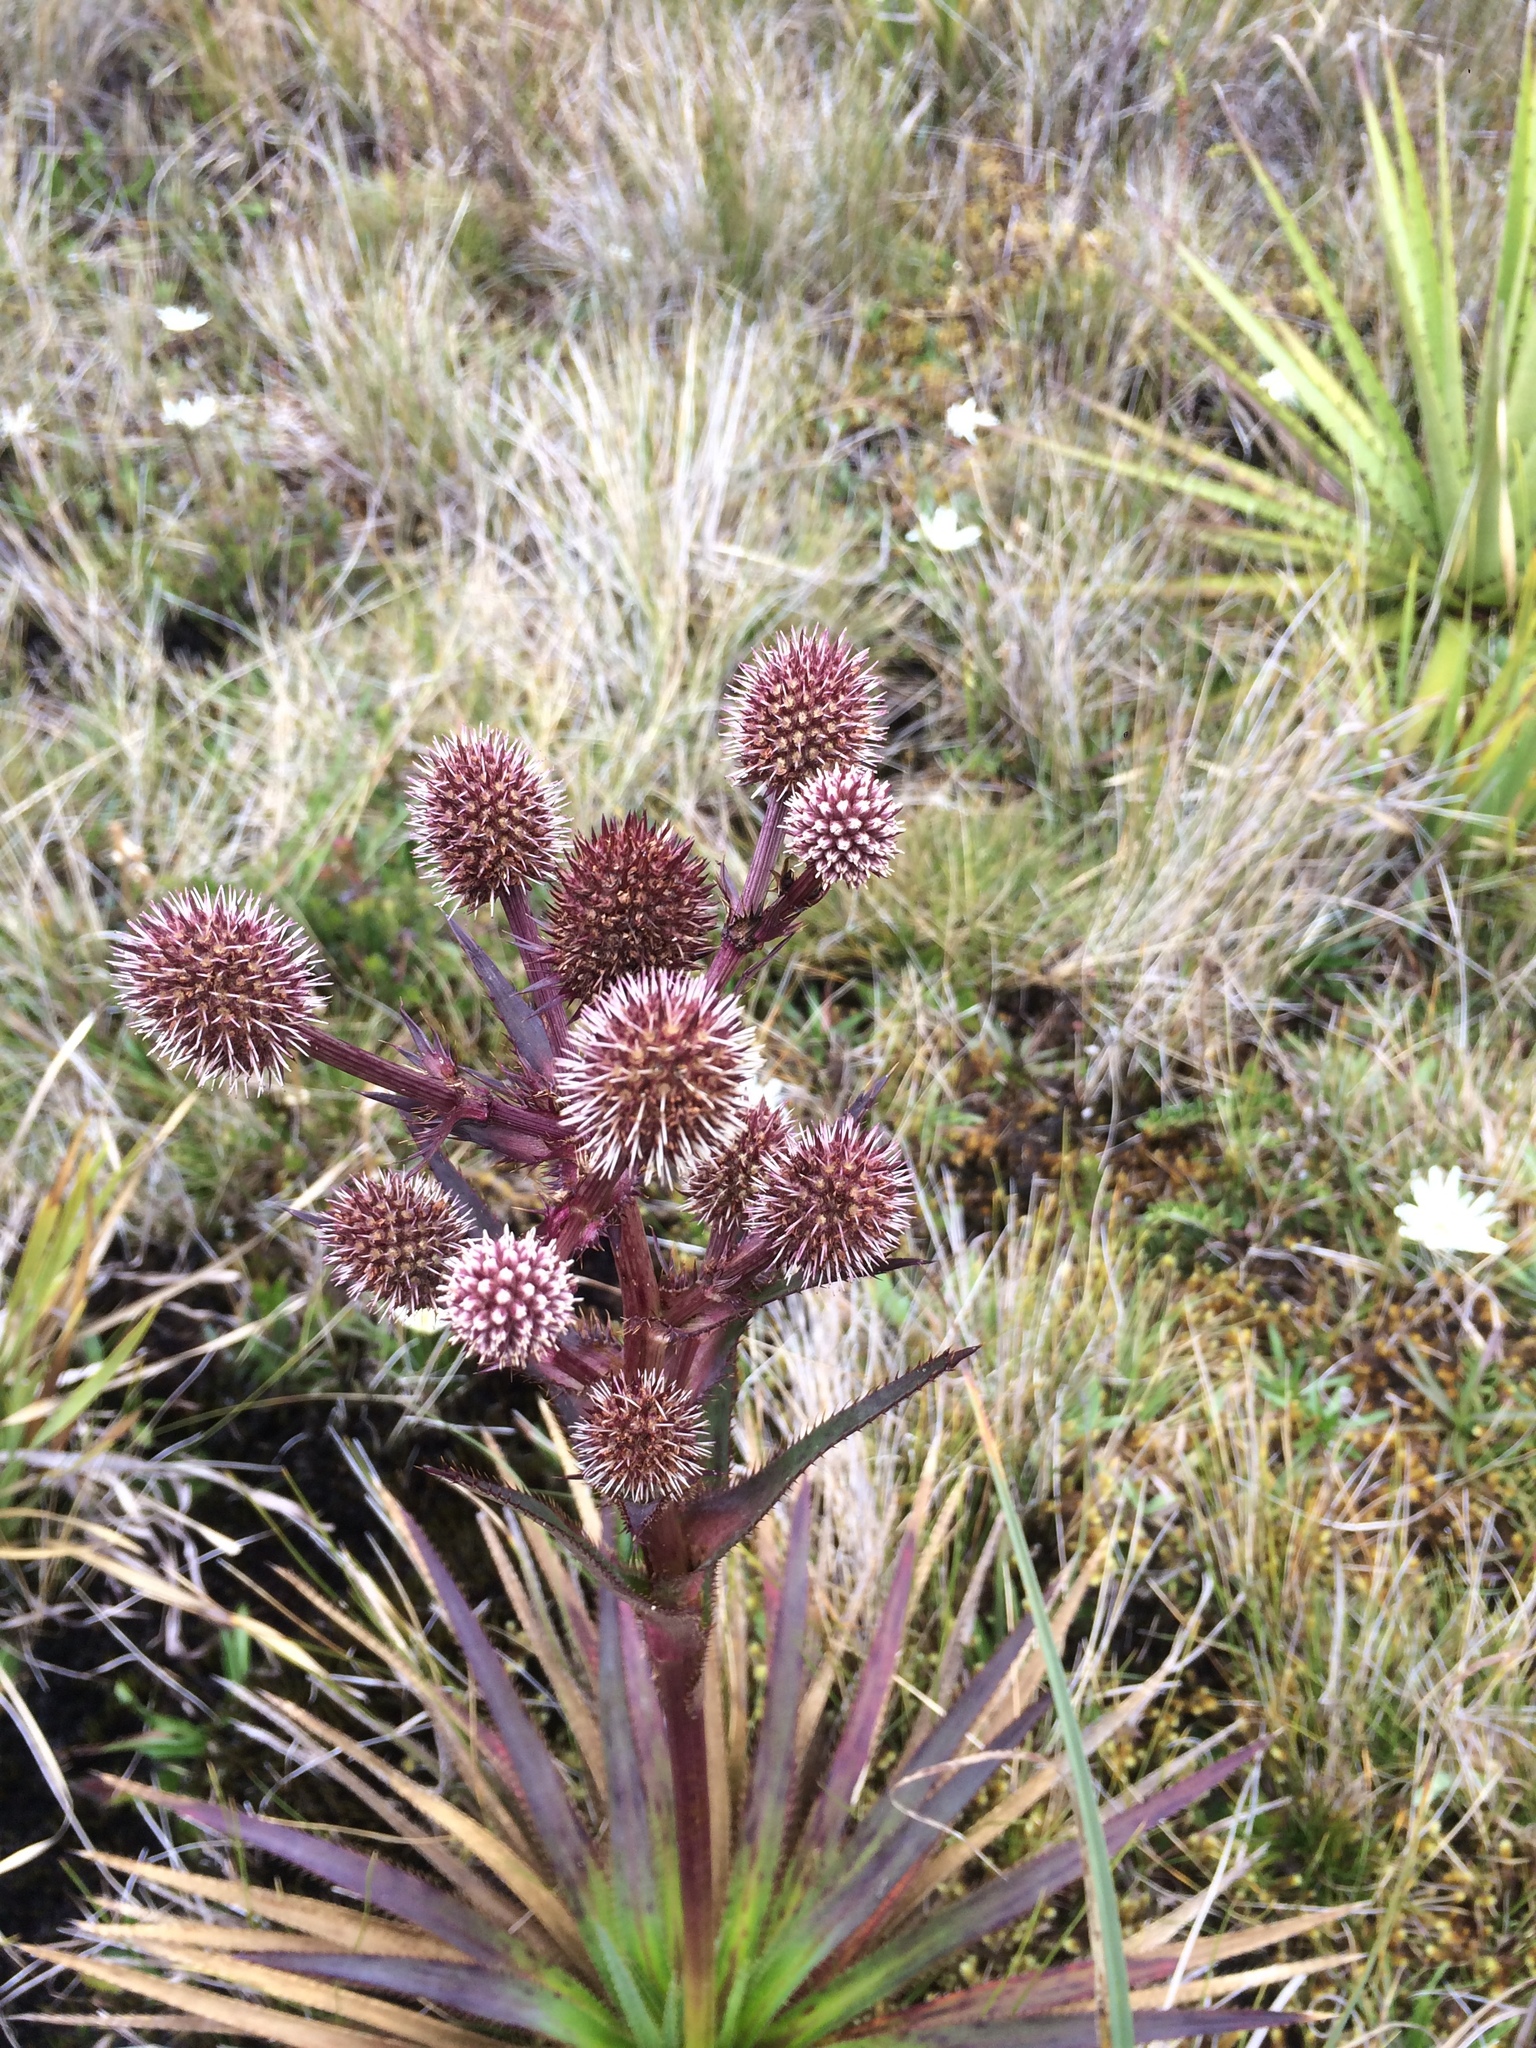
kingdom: Plantae
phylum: Tracheophyta
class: Magnoliopsida
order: Apiales
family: Apiaceae
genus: Eryngium
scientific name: Eryngium humboldtii
